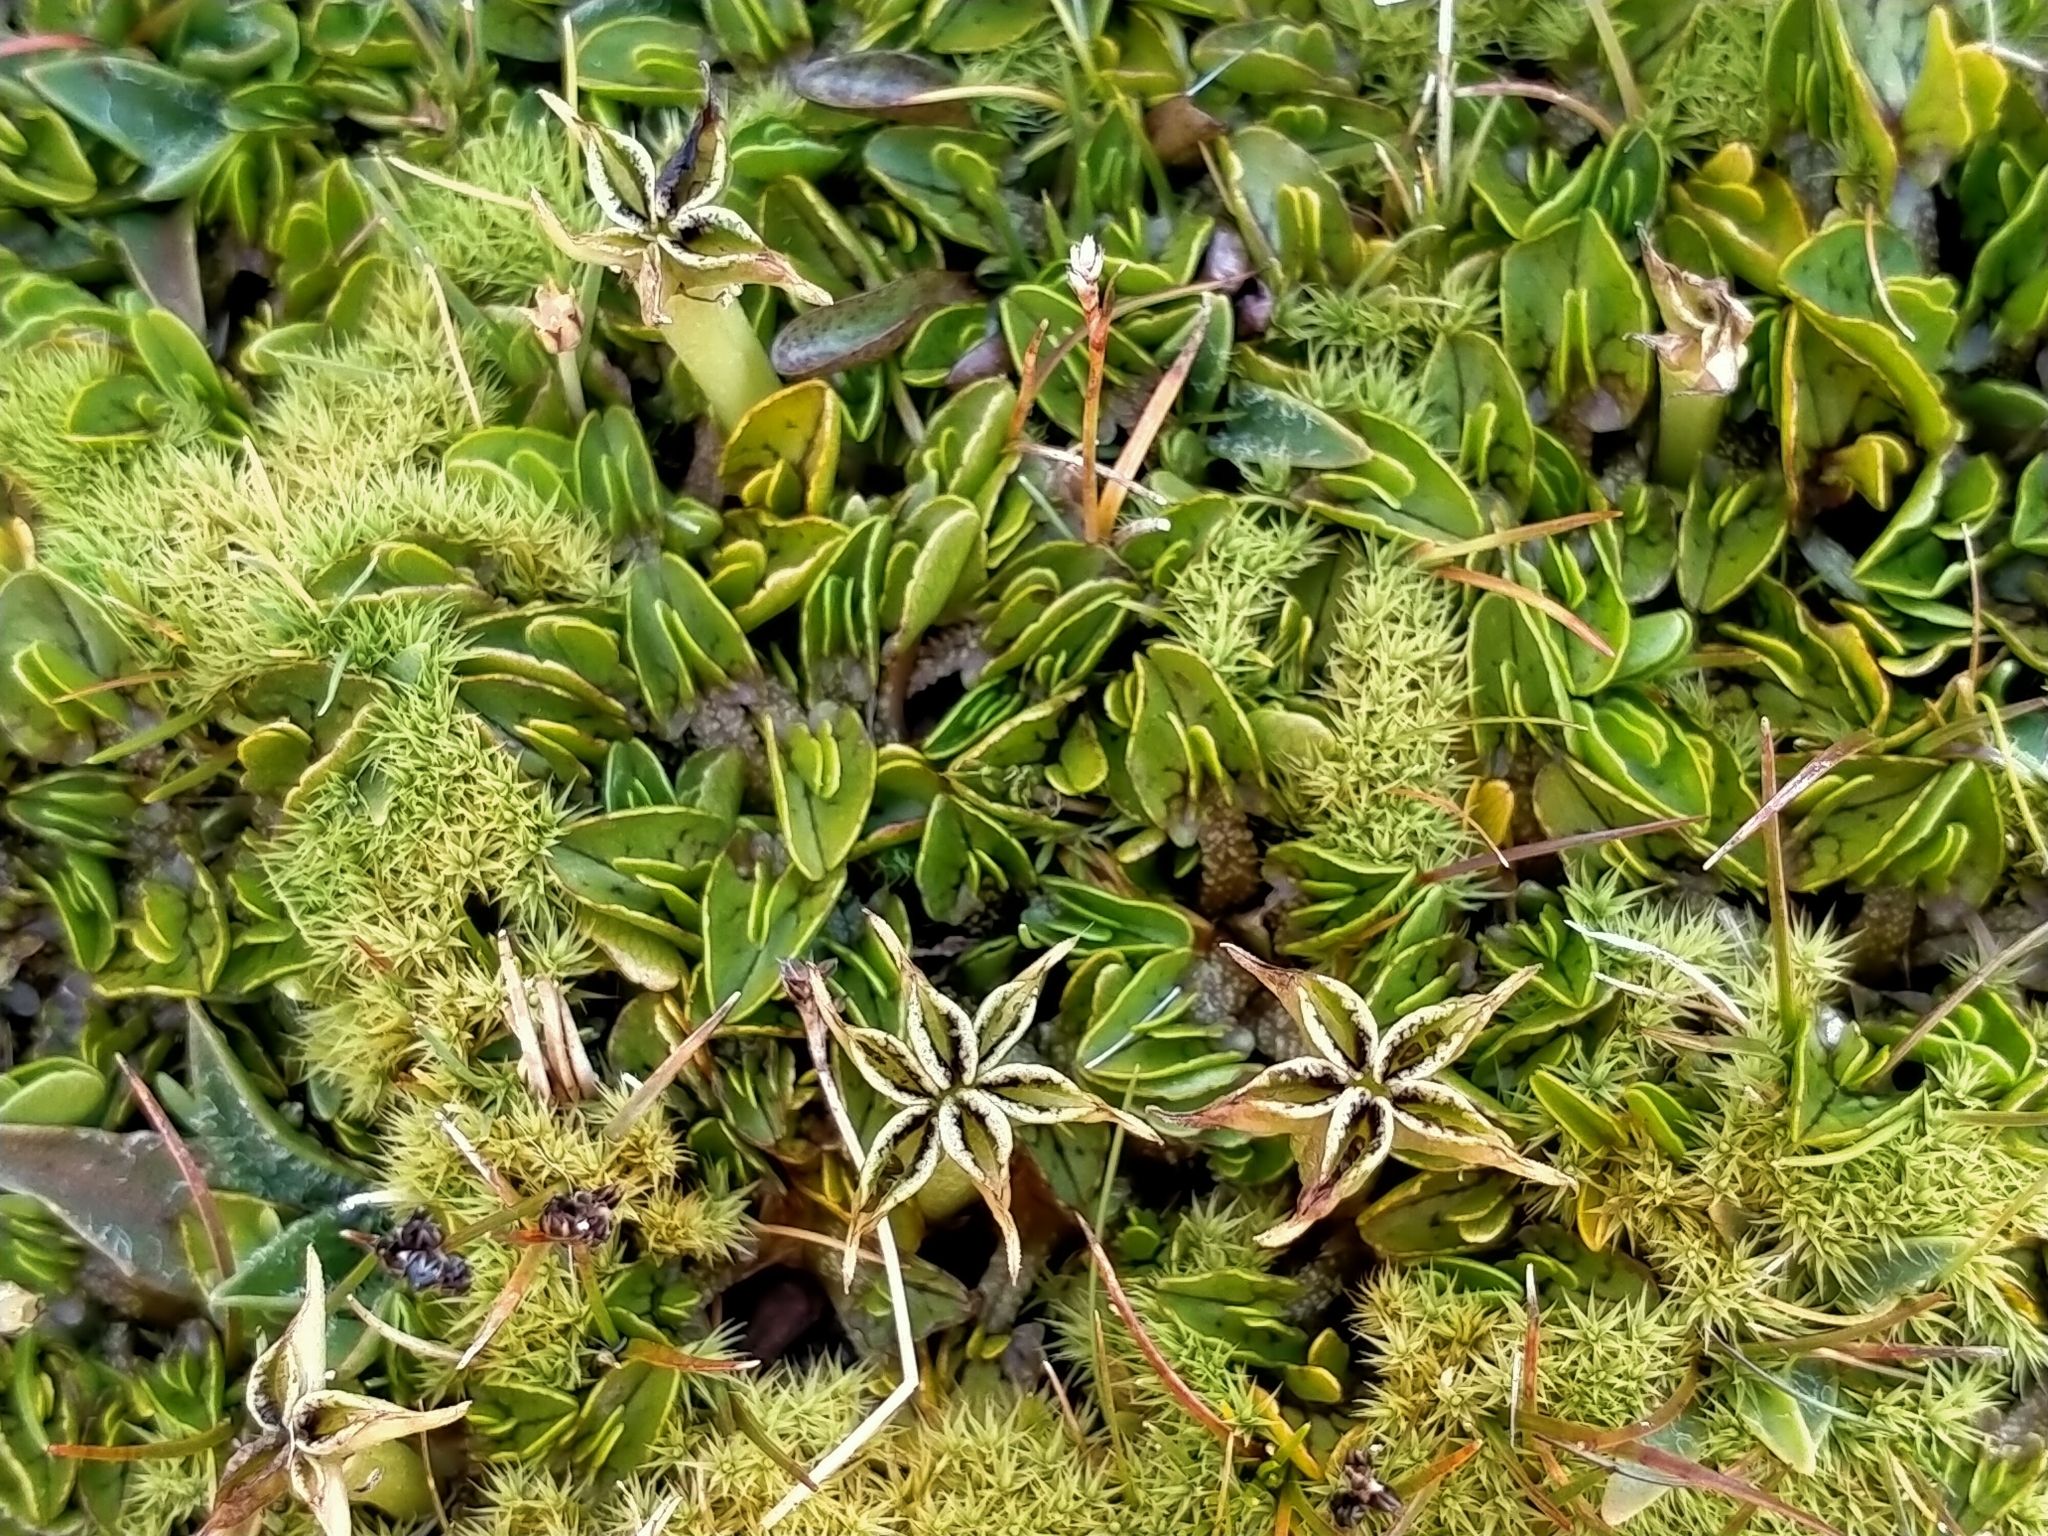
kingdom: Plantae
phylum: Tracheophyta
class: Magnoliopsida
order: Ranunculales
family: Ranunculaceae
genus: Caltha
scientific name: Caltha obtusa
